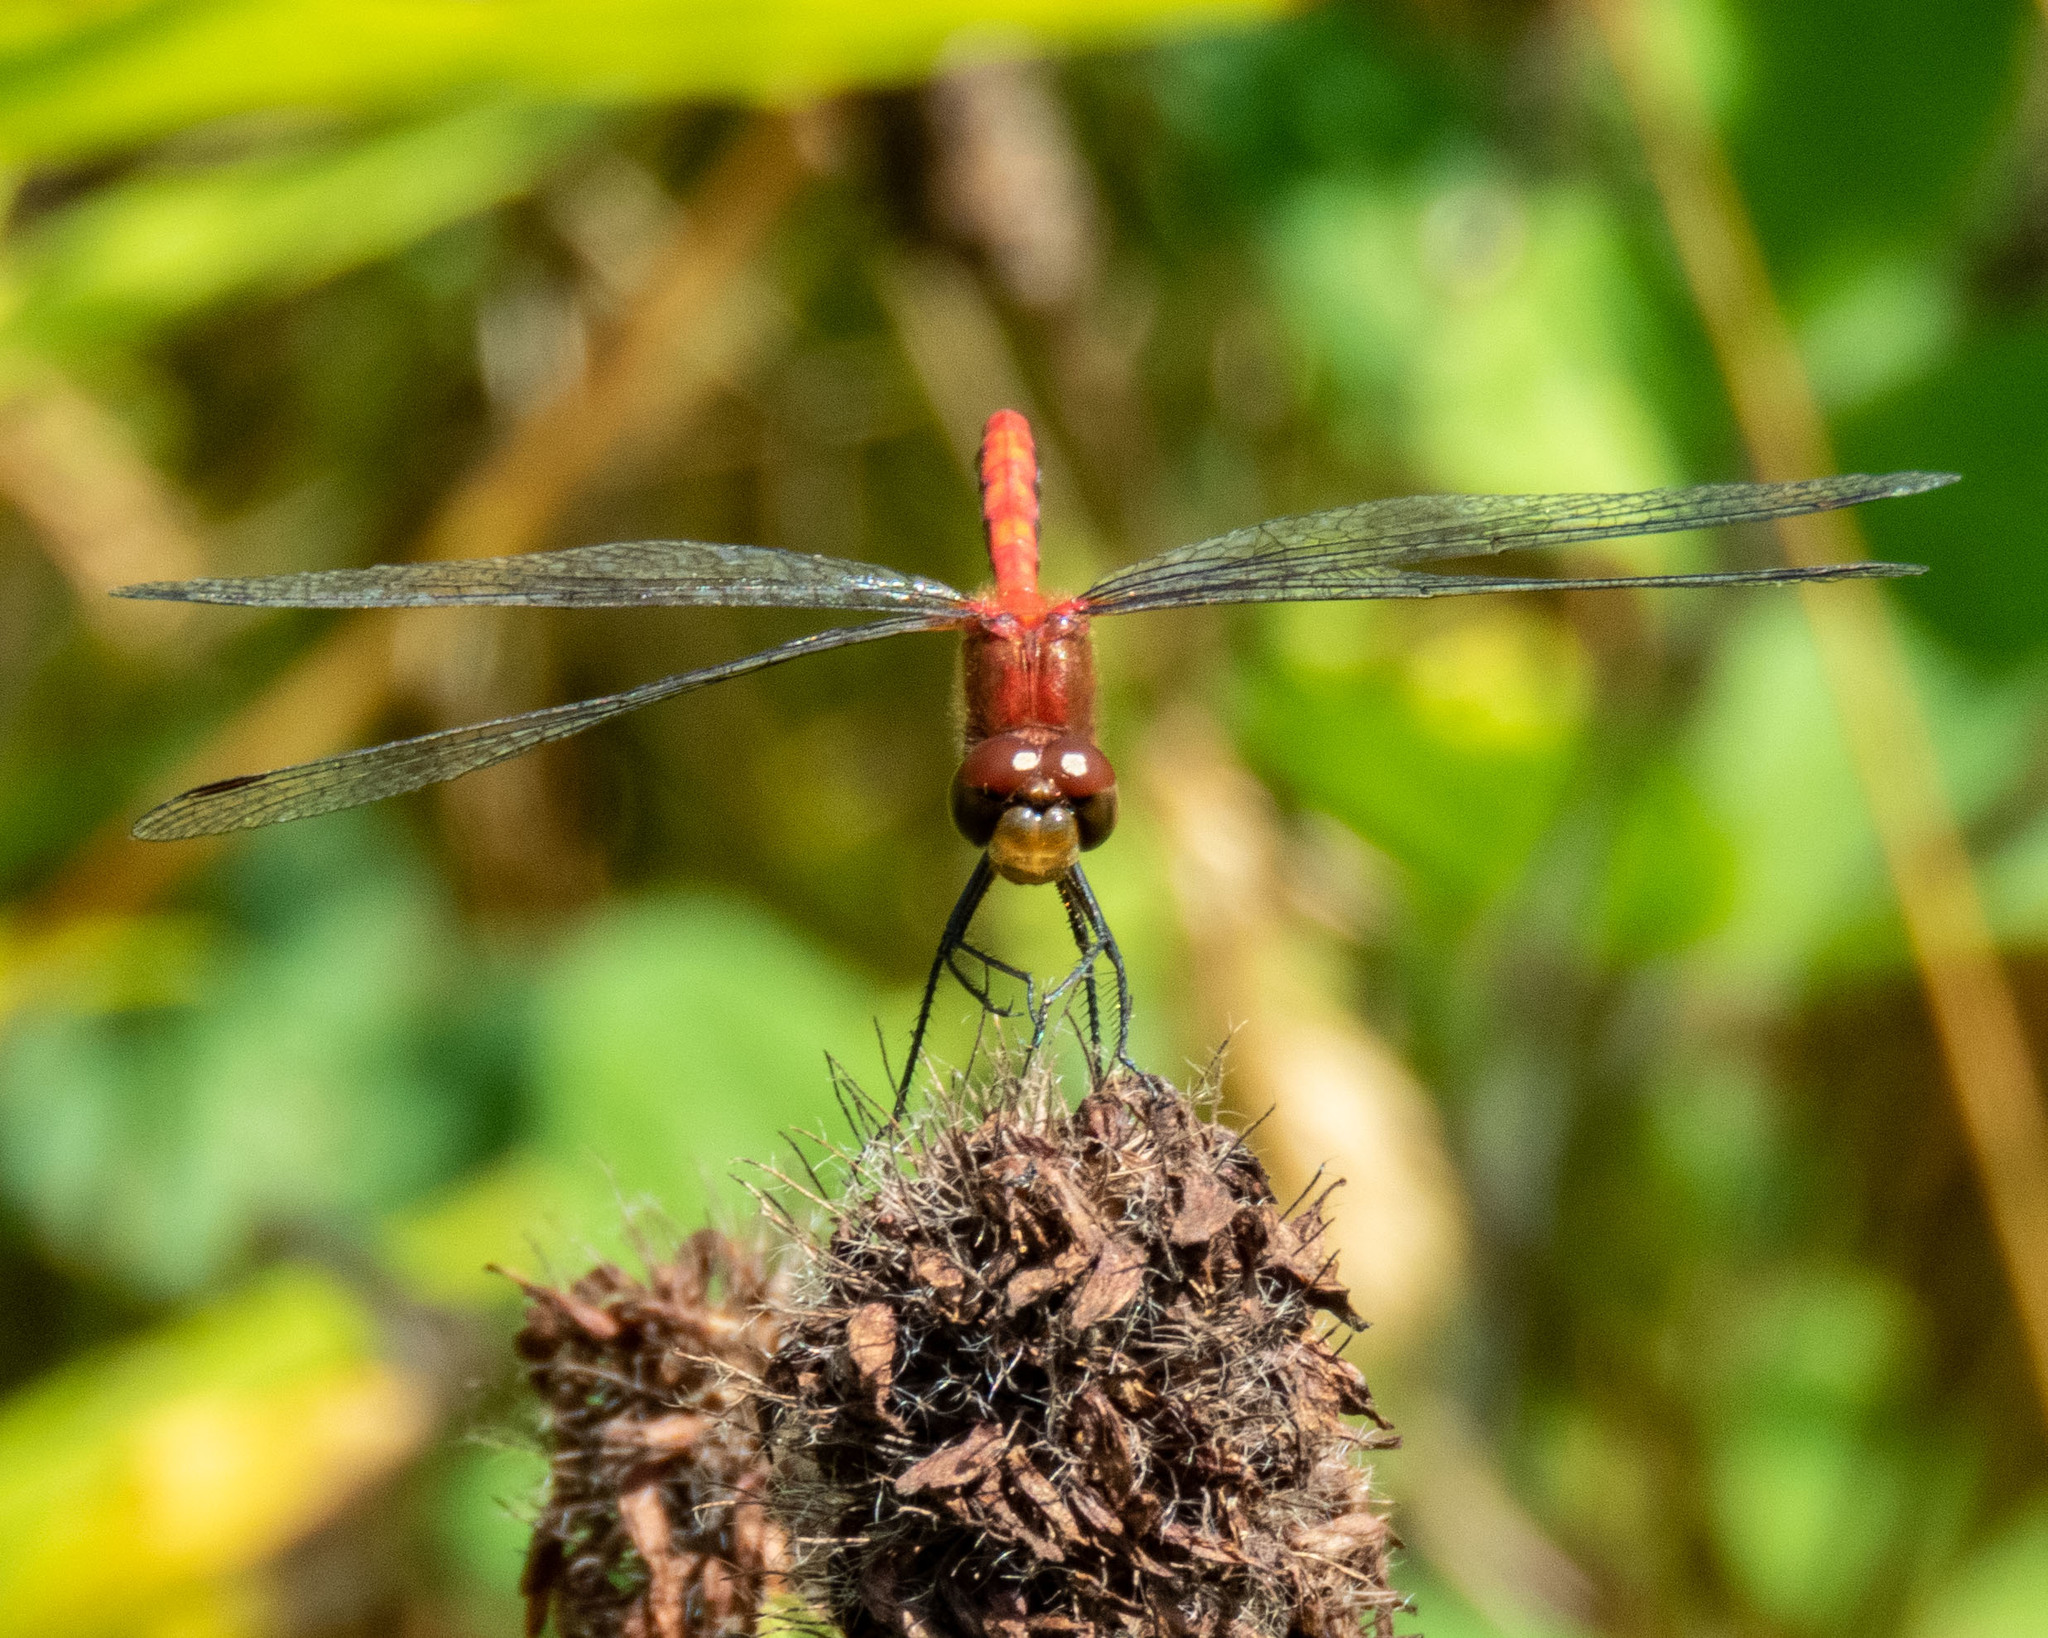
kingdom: Animalia
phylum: Arthropoda
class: Insecta
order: Odonata
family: Libellulidae
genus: Sympetrum
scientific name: Sympetrum
